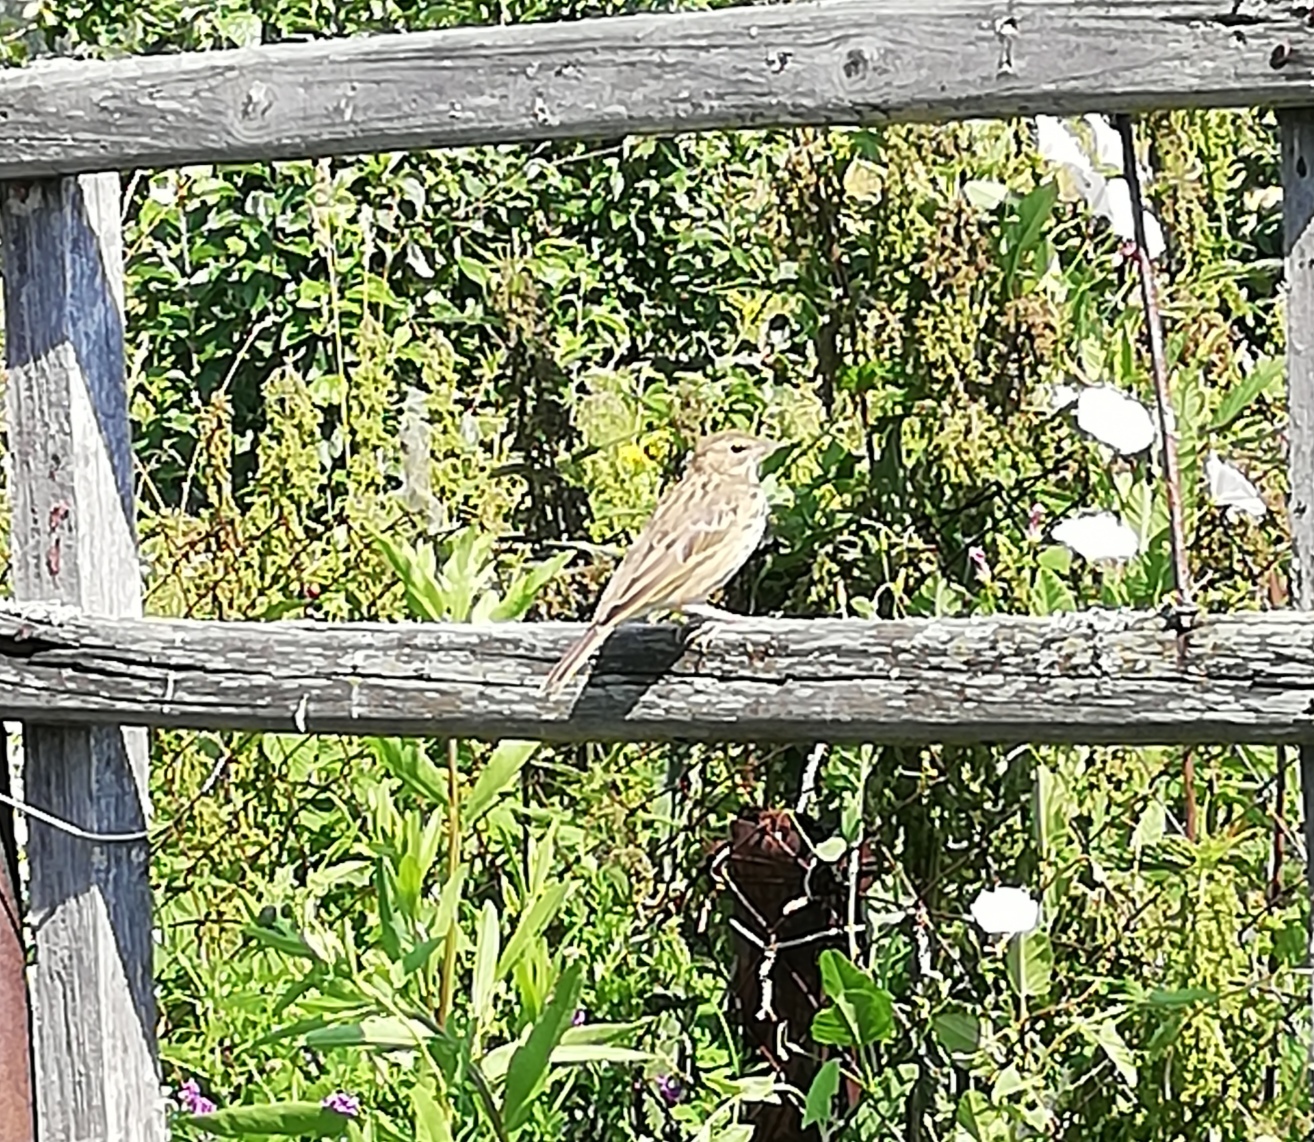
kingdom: Animalia
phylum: Chordata
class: Aves
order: Passeriformes
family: Motacillidae
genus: Anthus
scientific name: Anthus trivialis
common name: Tree pipit
